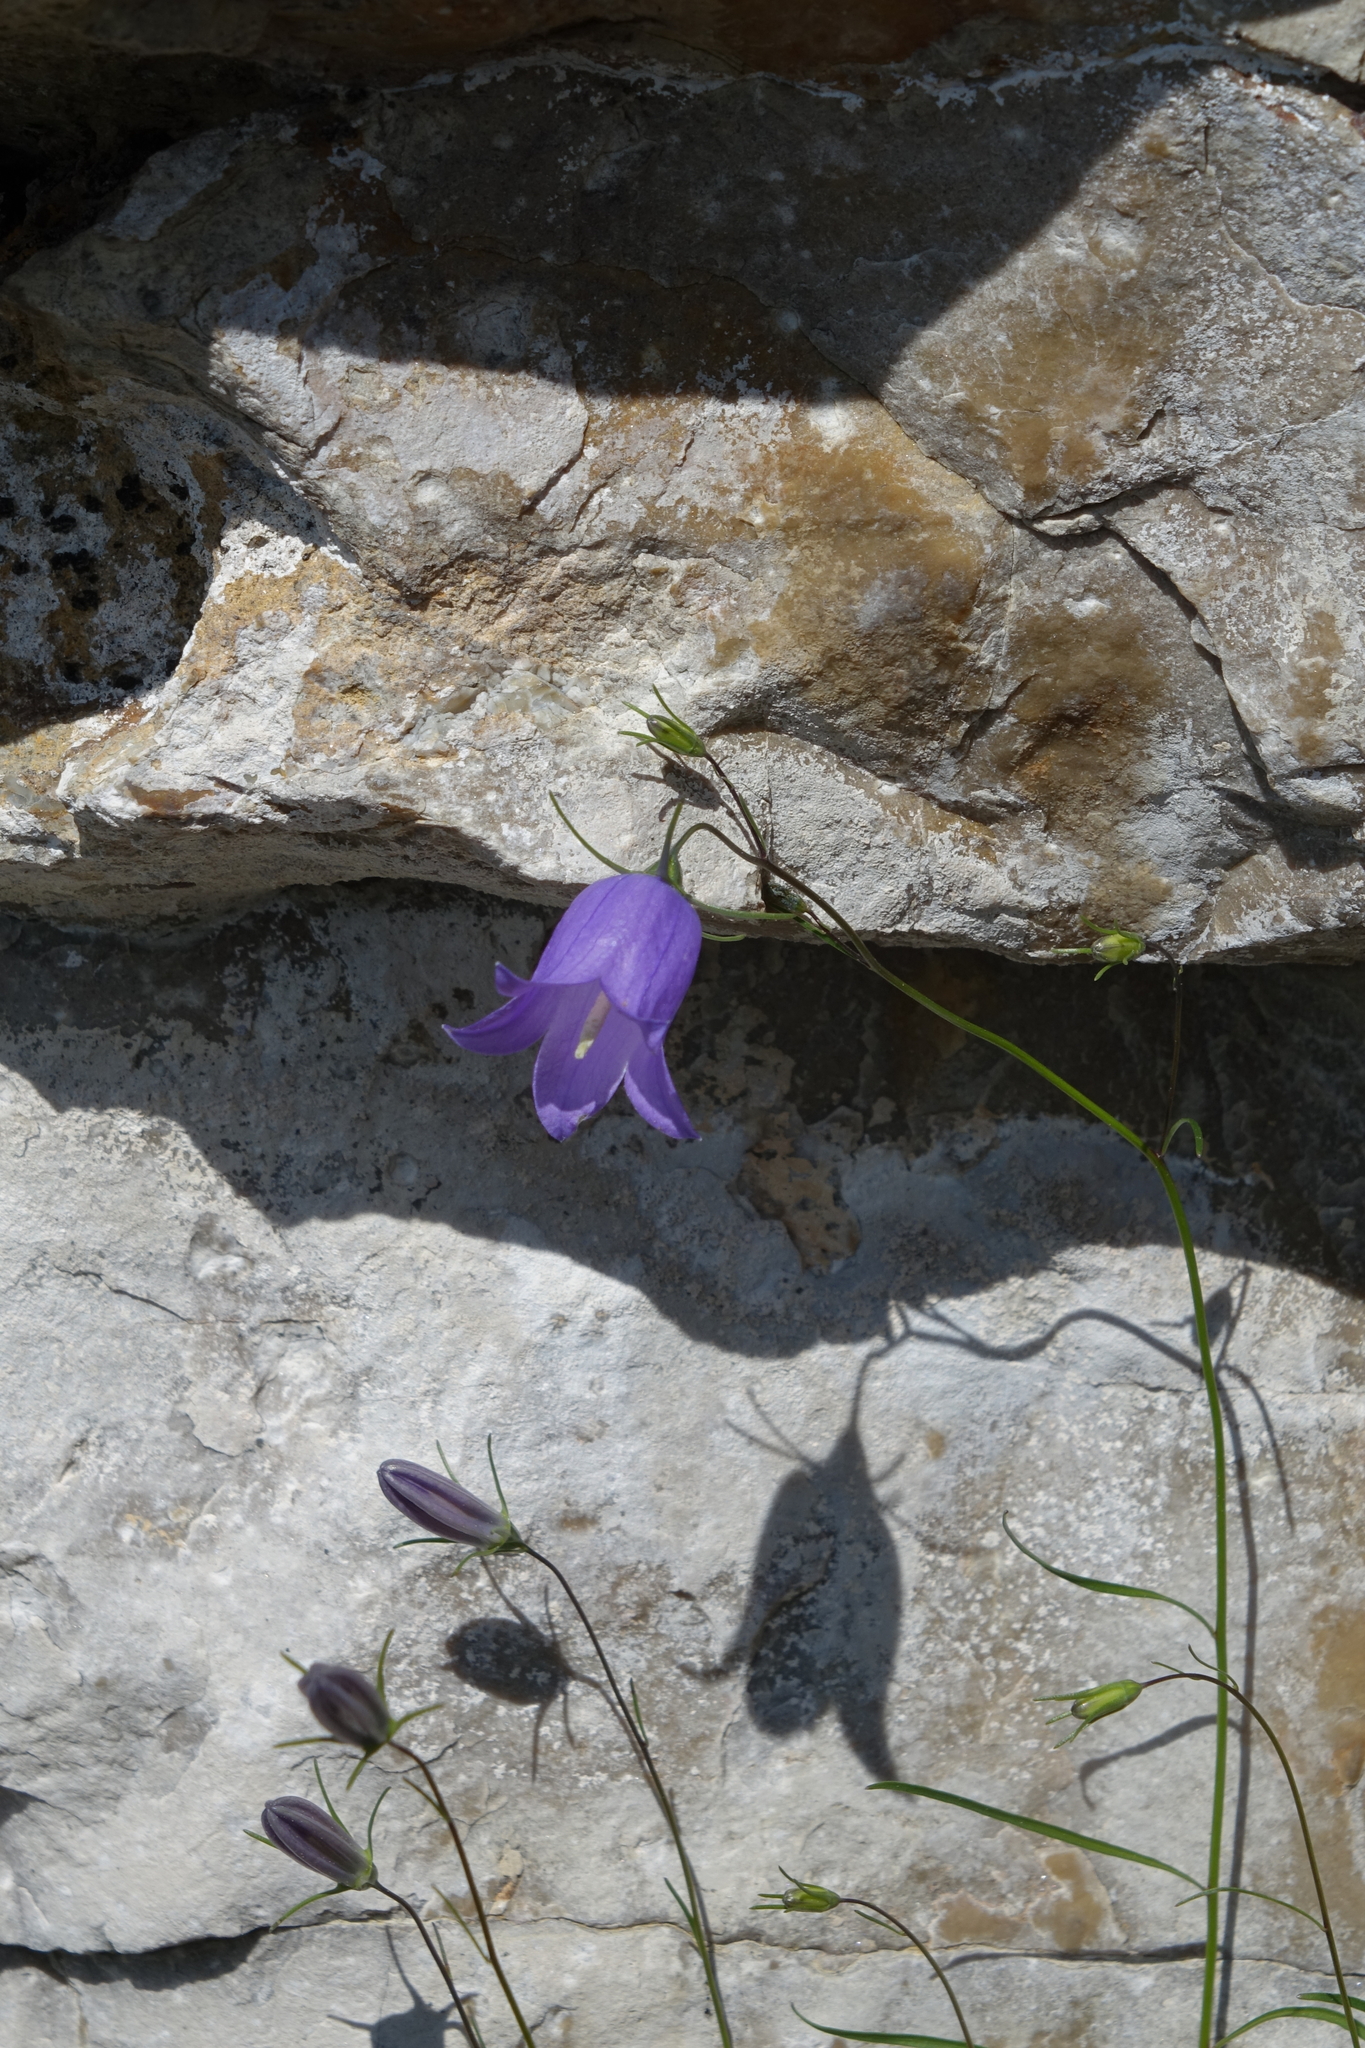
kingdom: Plantae
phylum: Tracheophyta
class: Magnoliopsida
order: Asterales
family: Campanulaceae
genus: Campanula
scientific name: Campanula rotundifolia
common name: Harebell
